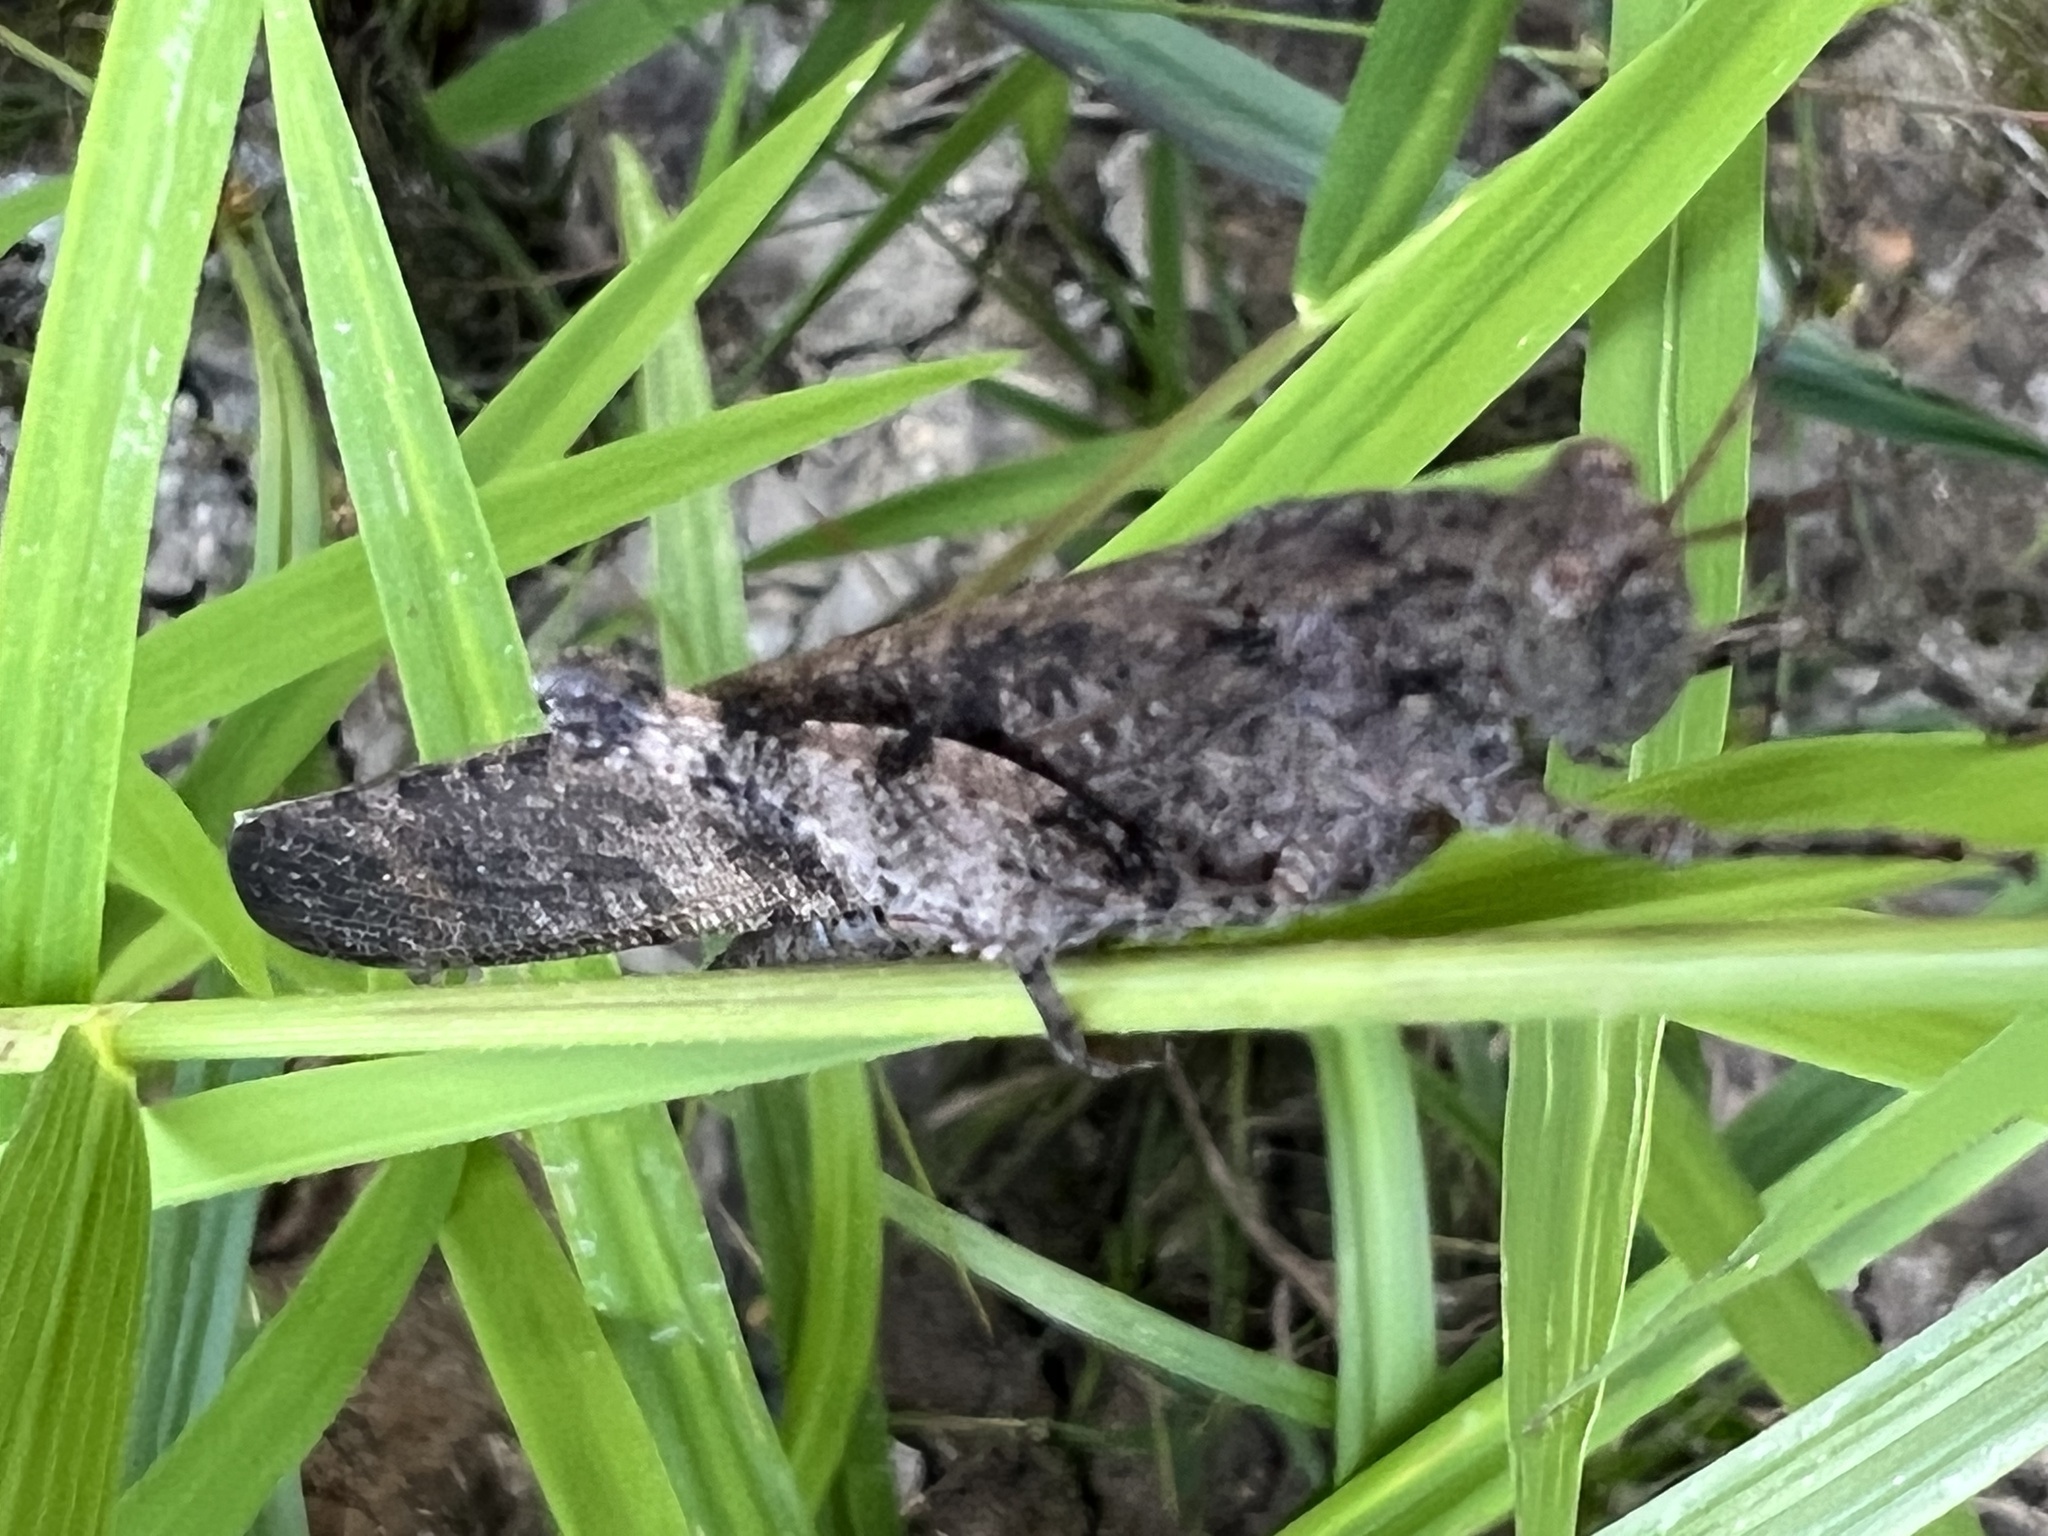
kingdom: Animalia
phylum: Arthropoda
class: Insecta
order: Orthoptera
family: Acrididae
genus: Dissosteira
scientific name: Dissosteira carolina
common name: Carolina grasshopper
